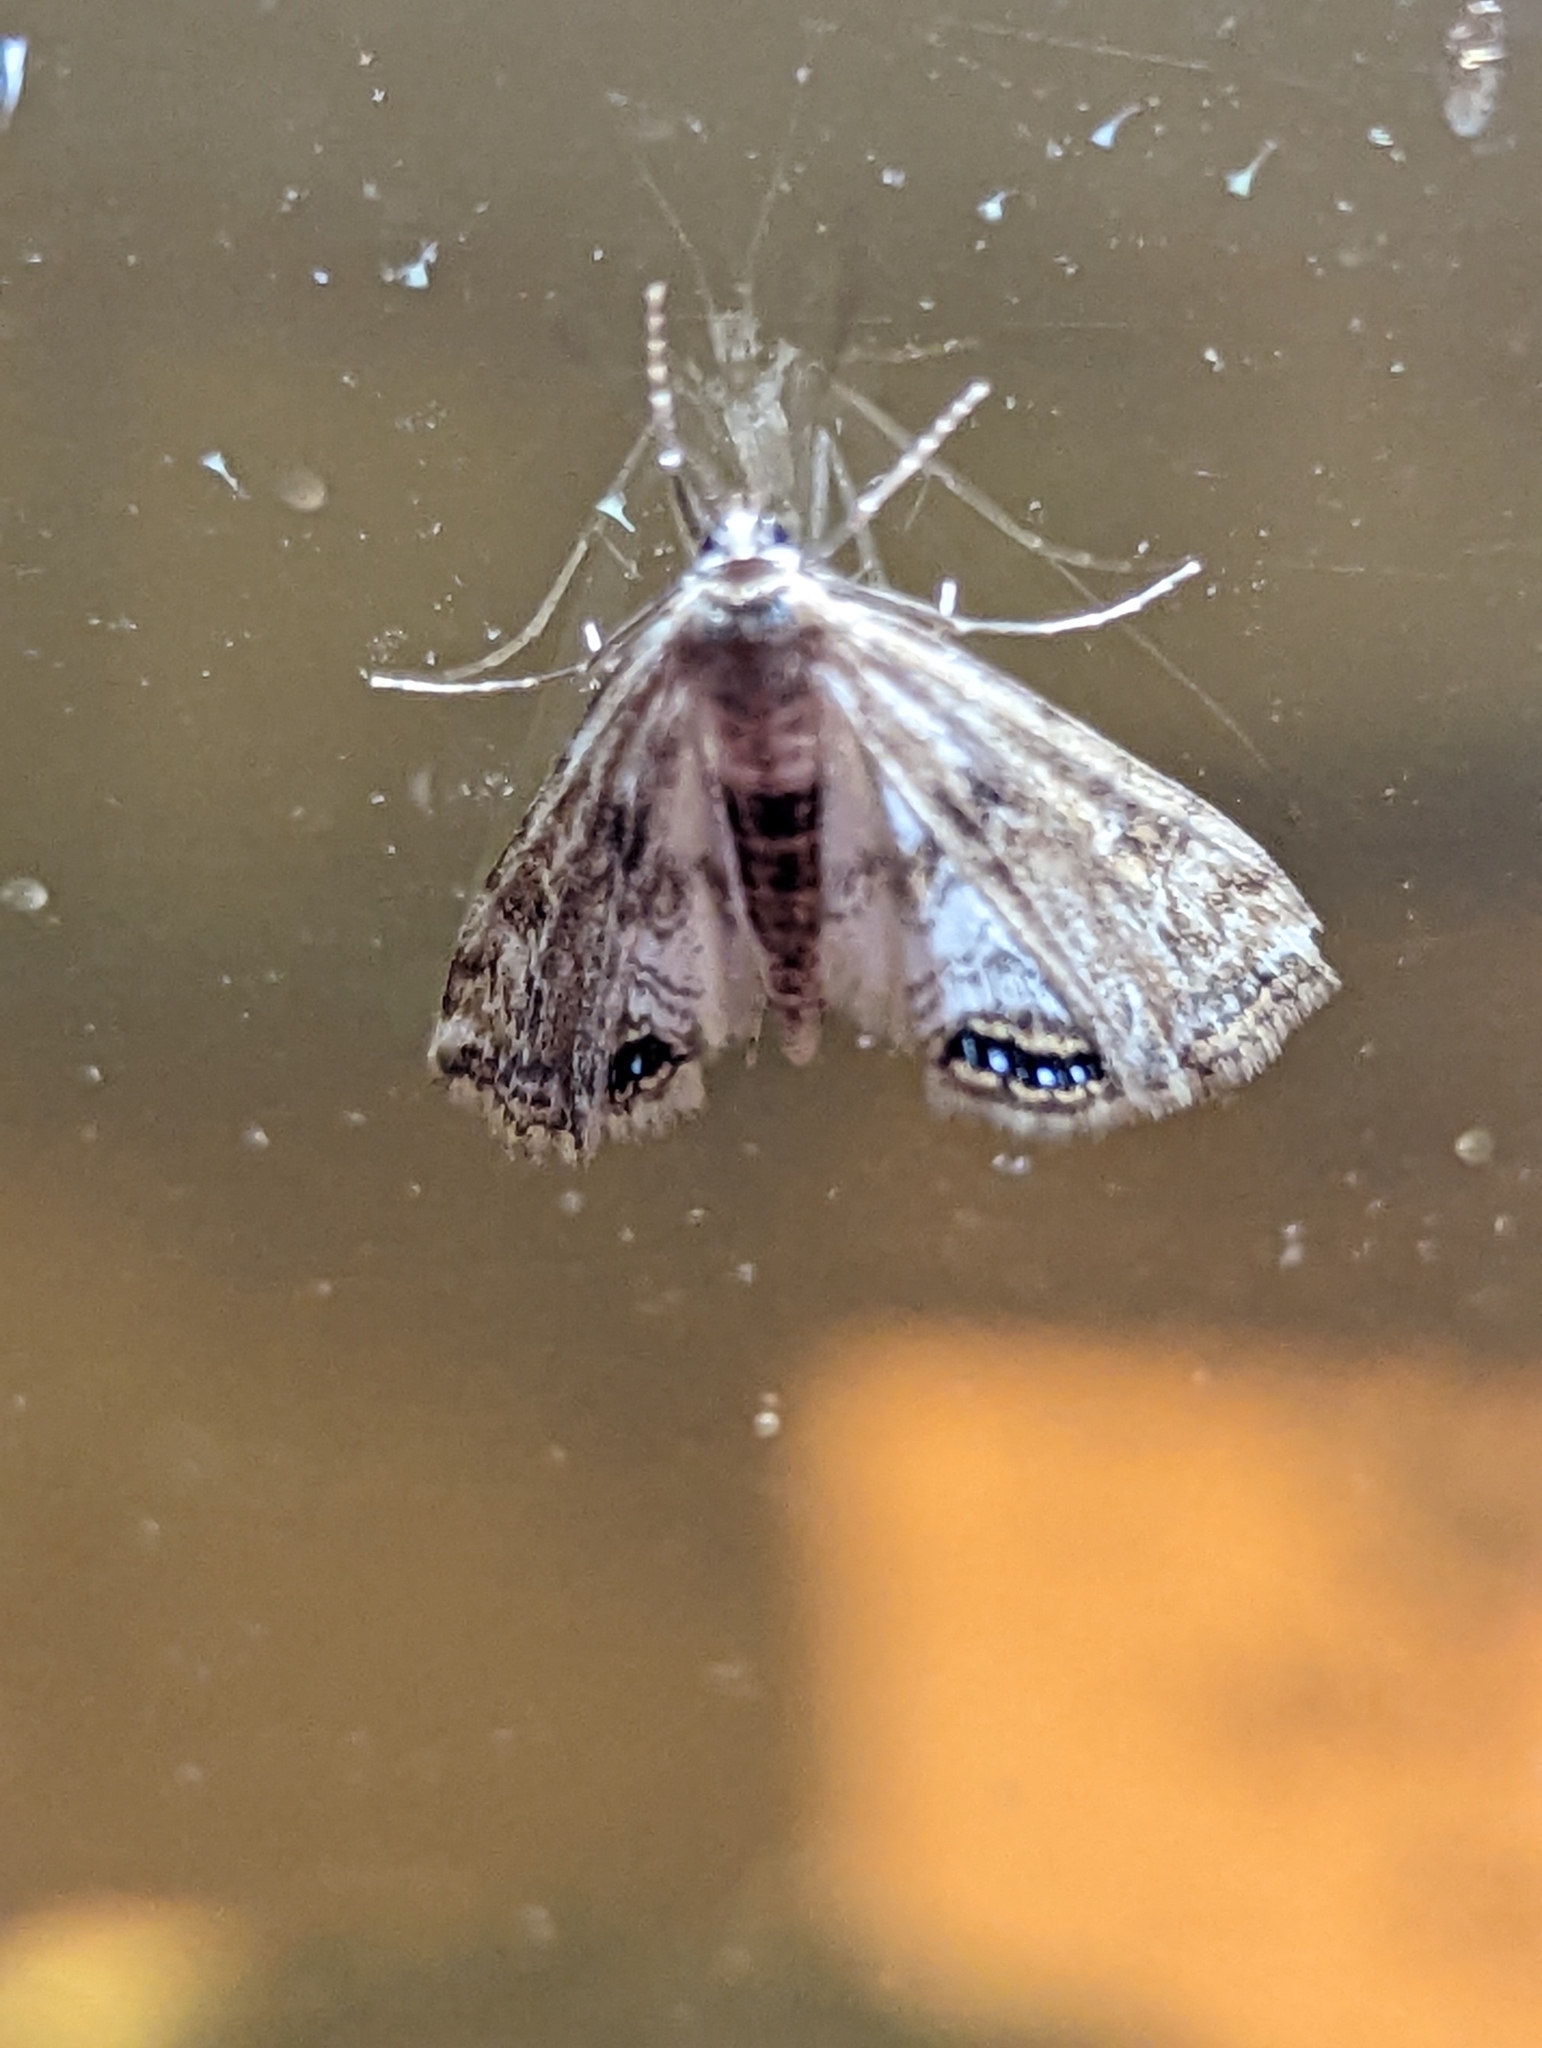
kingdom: Animalia
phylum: Arthropoda
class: Insecta
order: Lepidoptera
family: Crambidae
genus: Cataclysta
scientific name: Cataclysta lemnata
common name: Small china-mark
